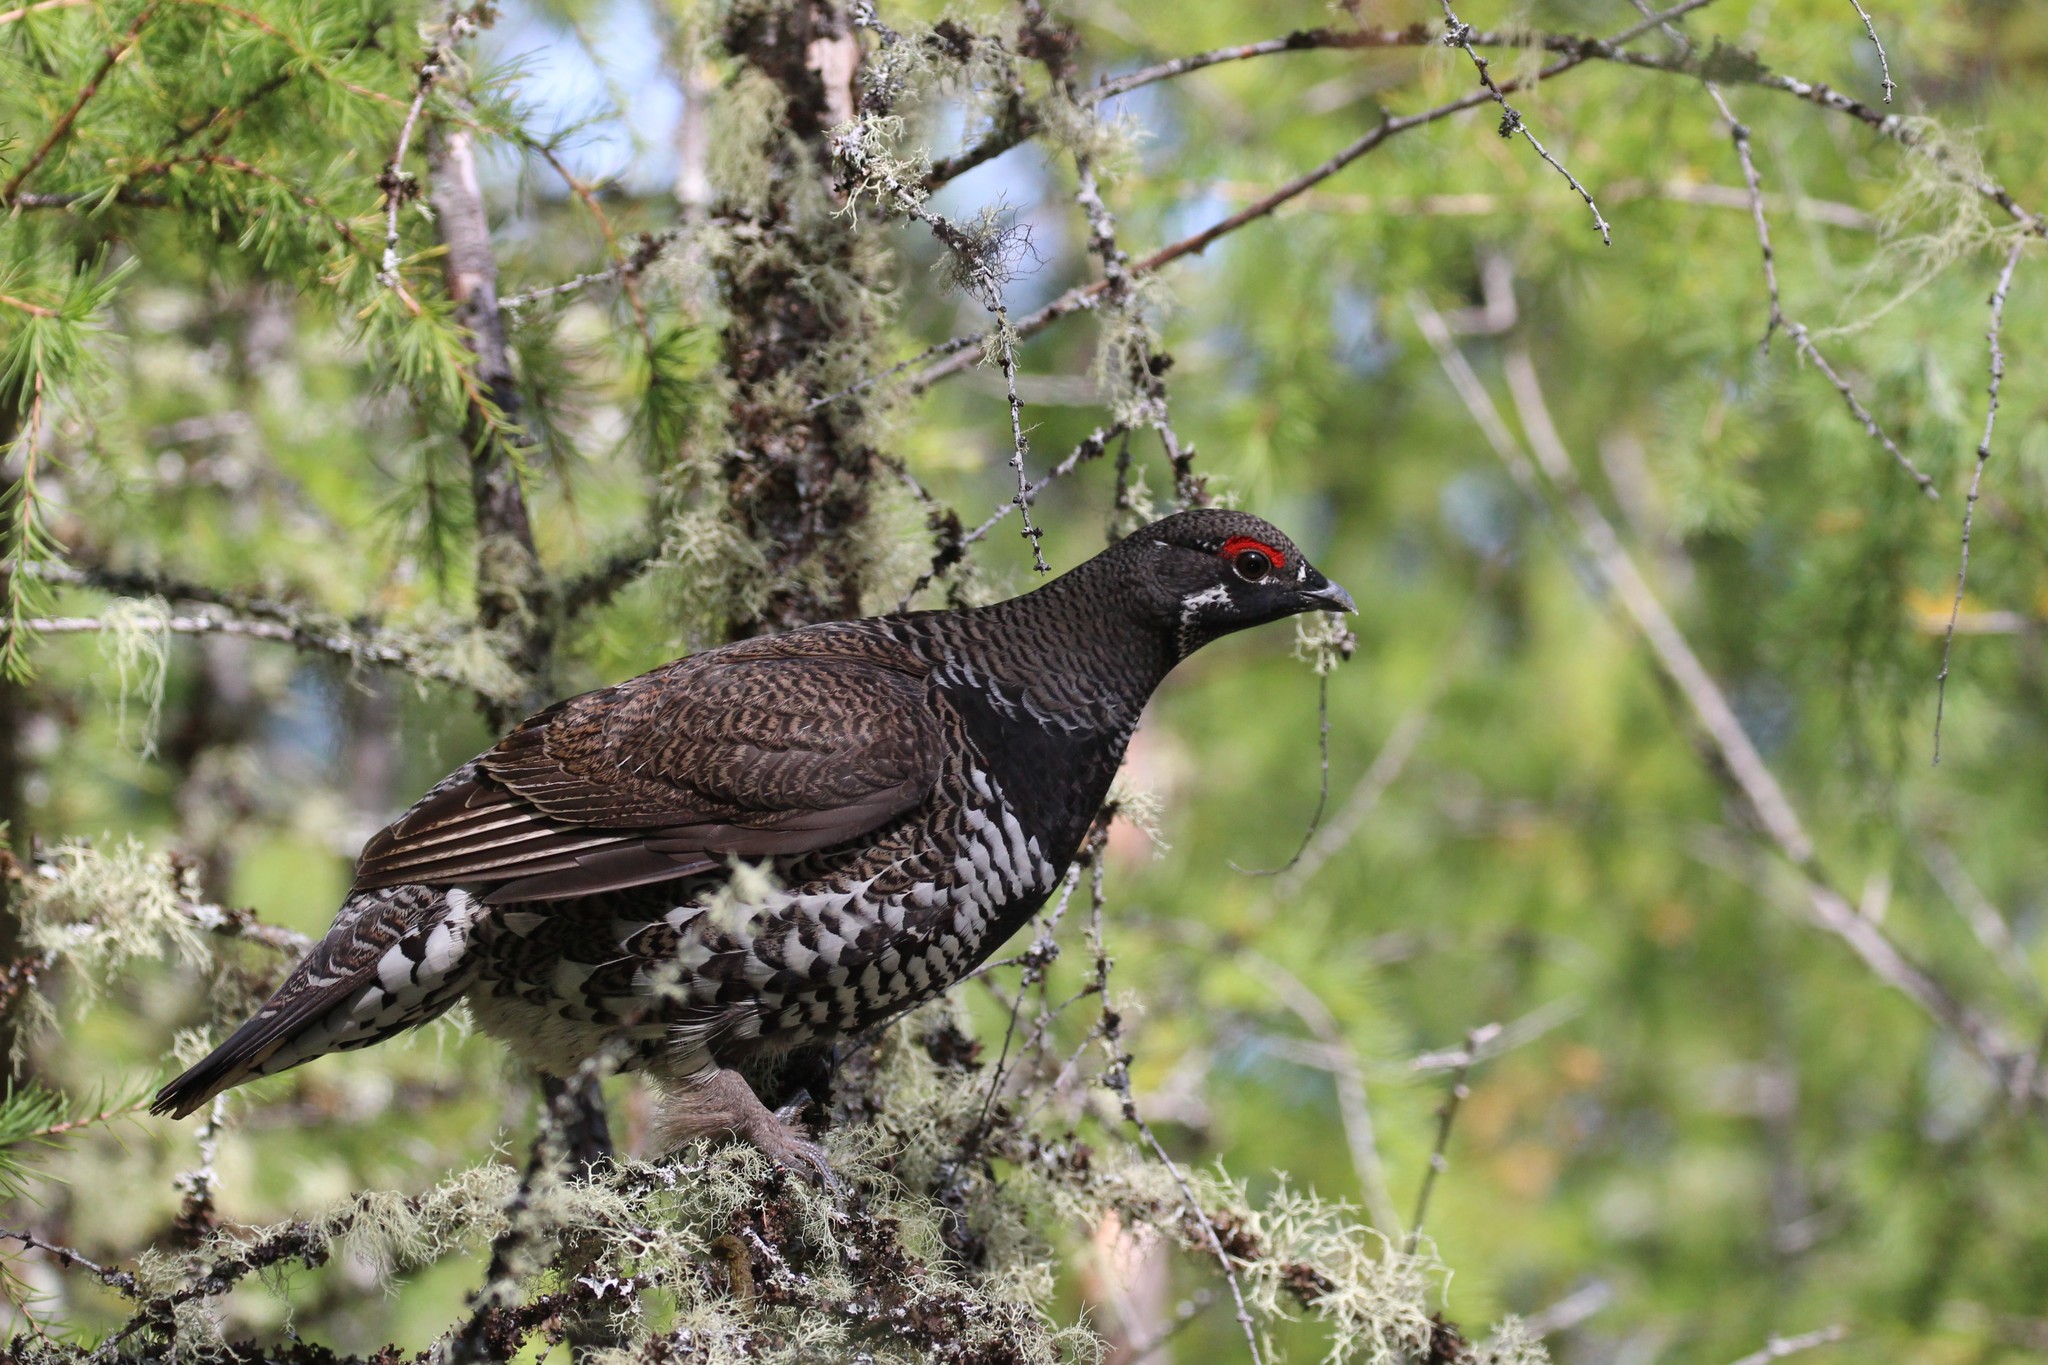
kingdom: Animalia
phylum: Chordata
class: Aves
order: Galliformes
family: Phasianidae
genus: Canachites
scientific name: Canachites canadensis
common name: Spruce grouse
